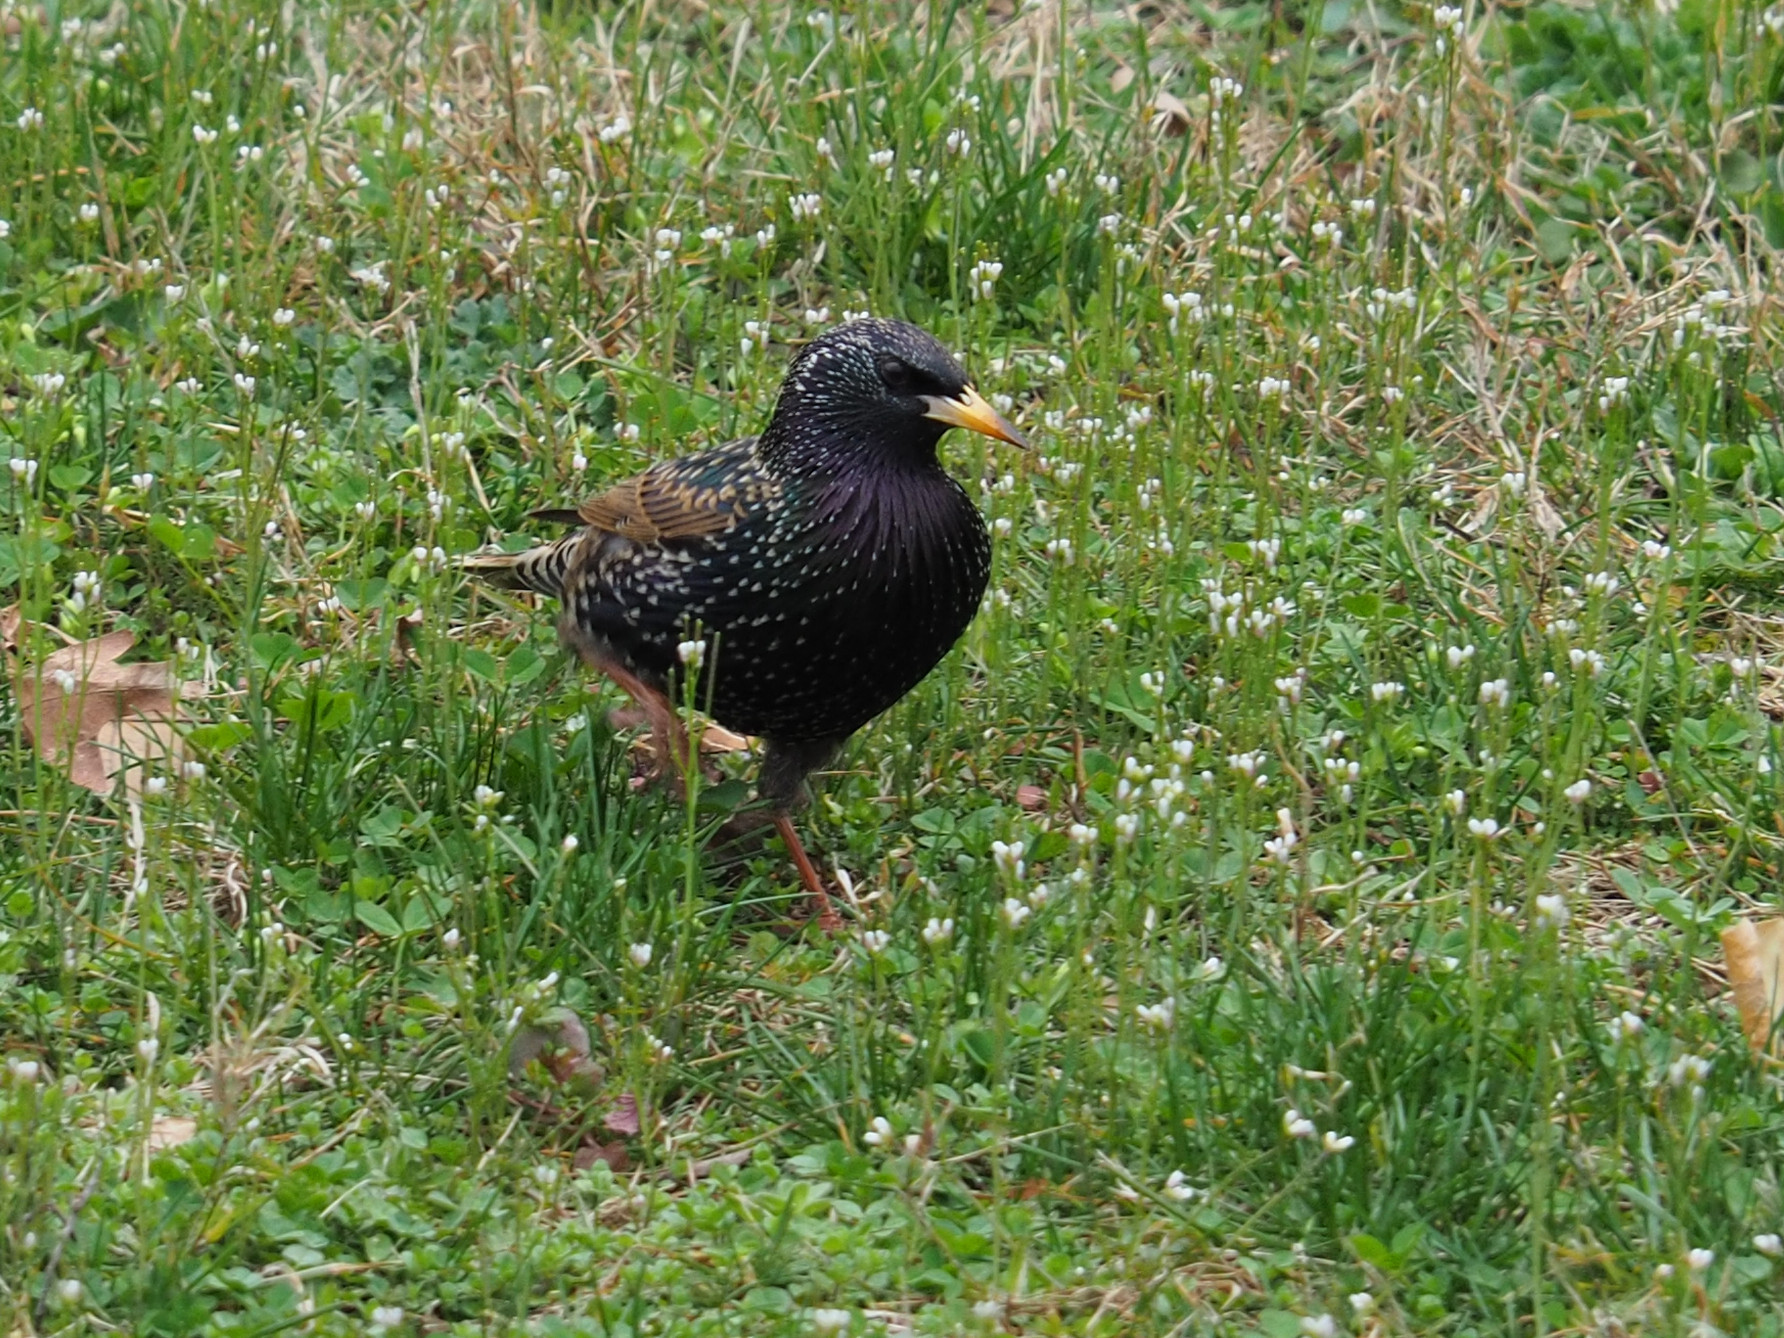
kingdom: Animalia
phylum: Chordata
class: Aves
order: Passeriformes
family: Sturnidae
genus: Sturnus
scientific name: Sturnus vulgaris
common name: Common starling
